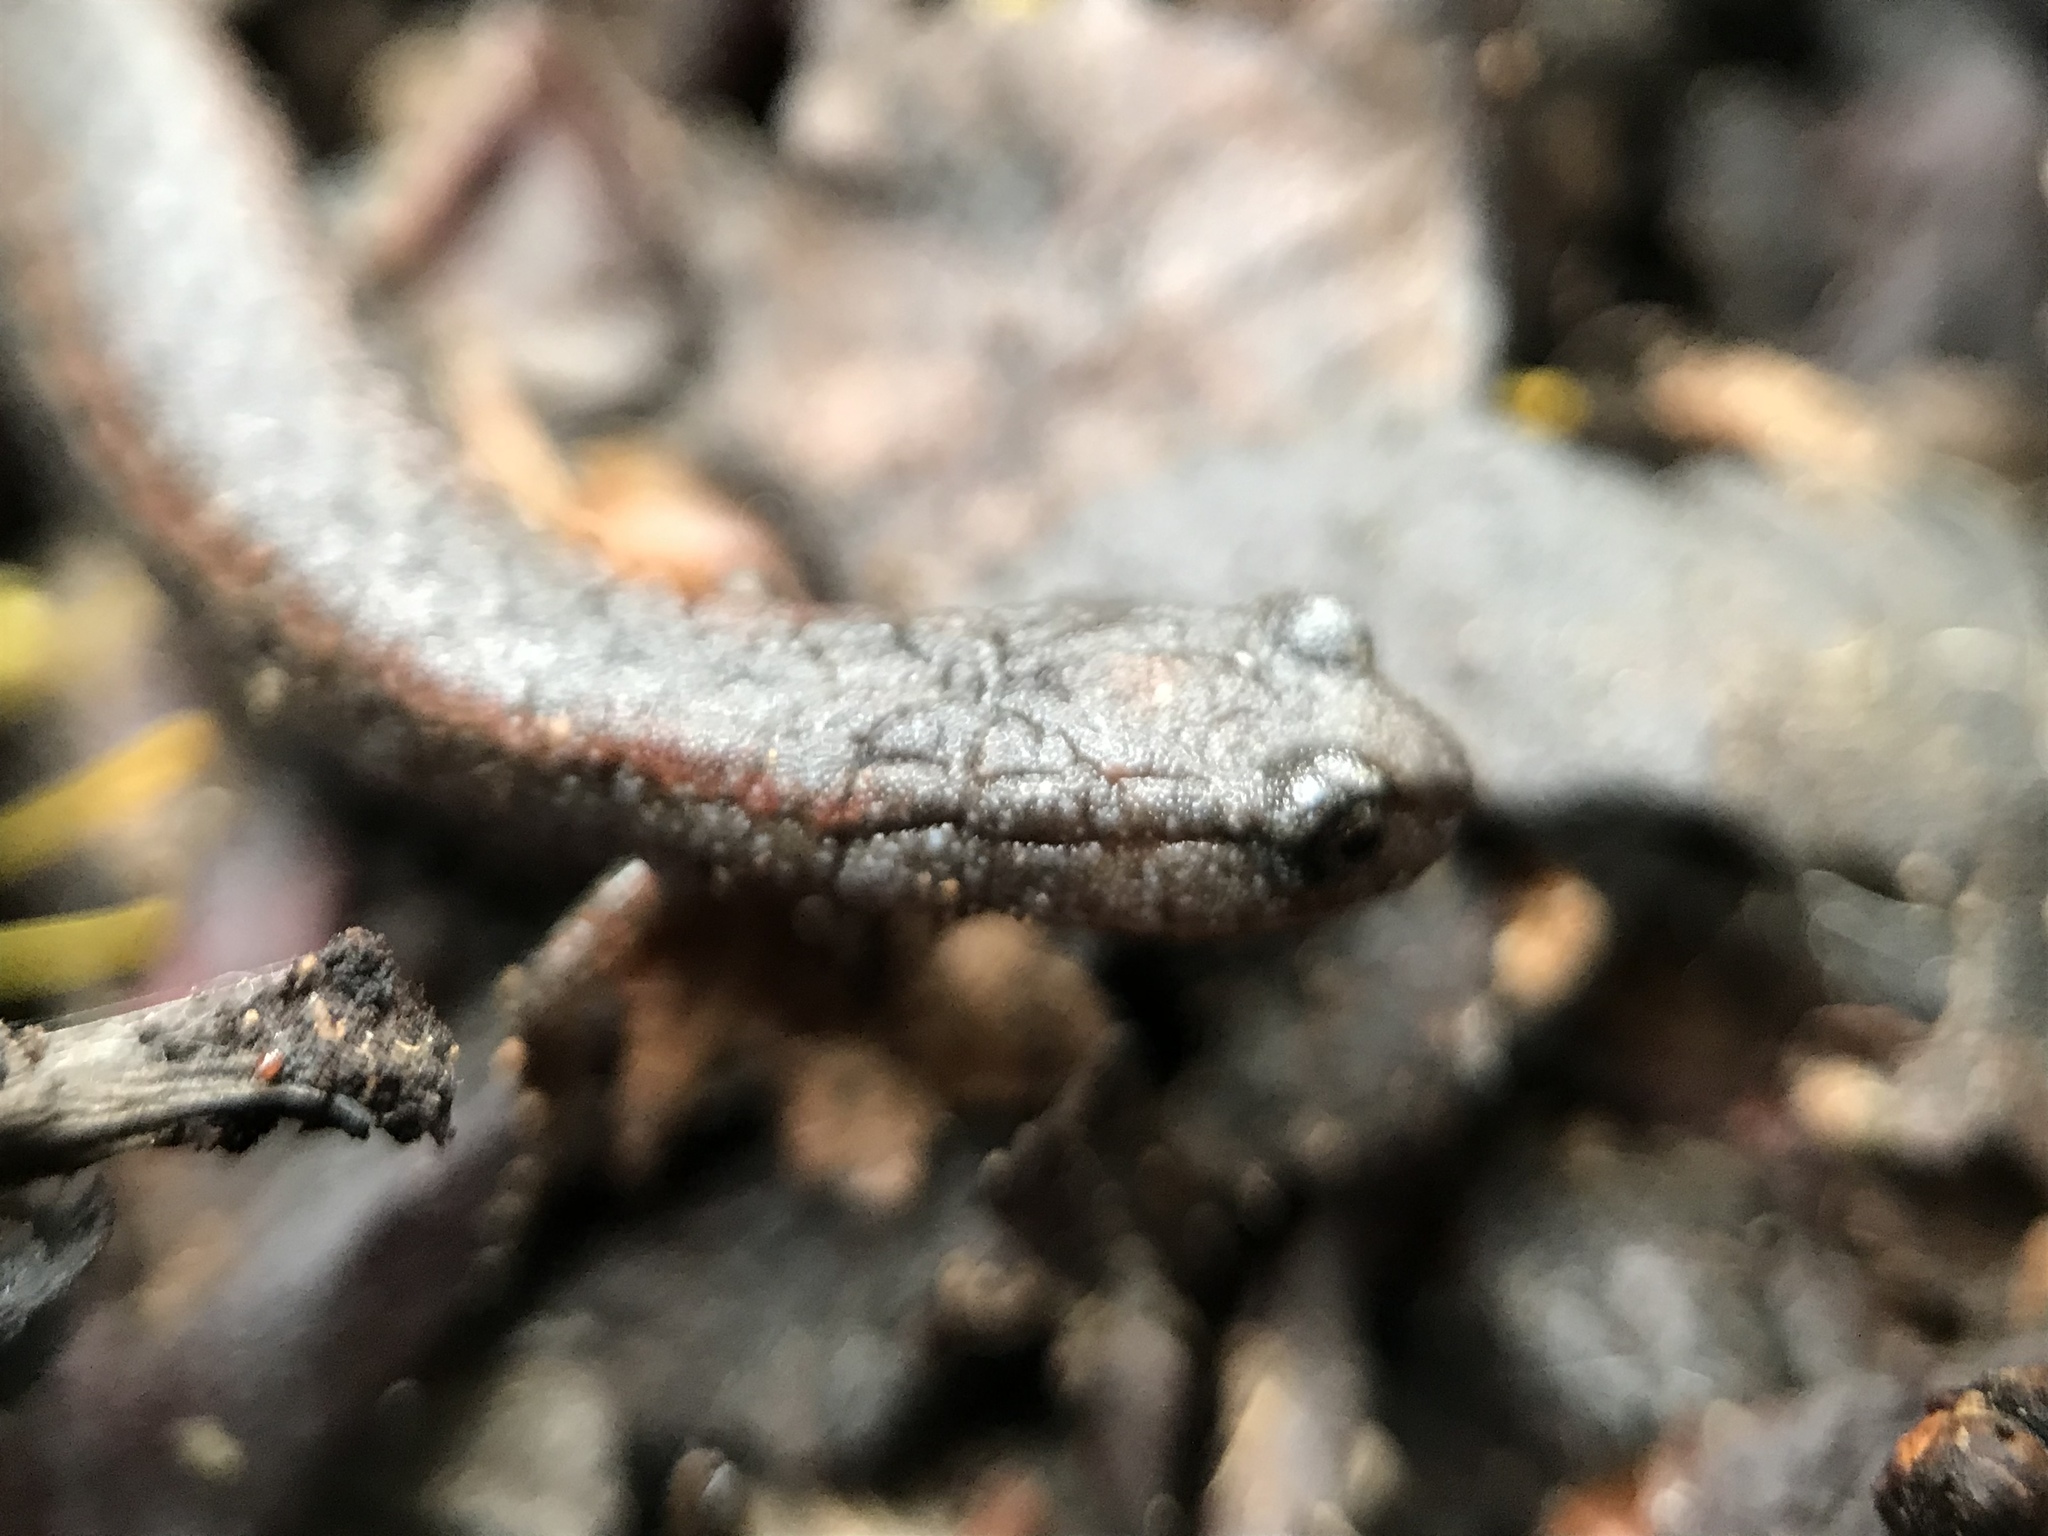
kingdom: Animalia
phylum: Chordata
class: Amphibia
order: Caudata
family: Plethodontidae
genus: Batrachoseps
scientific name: Batrachoseps attenuatus
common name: California slender salamander
